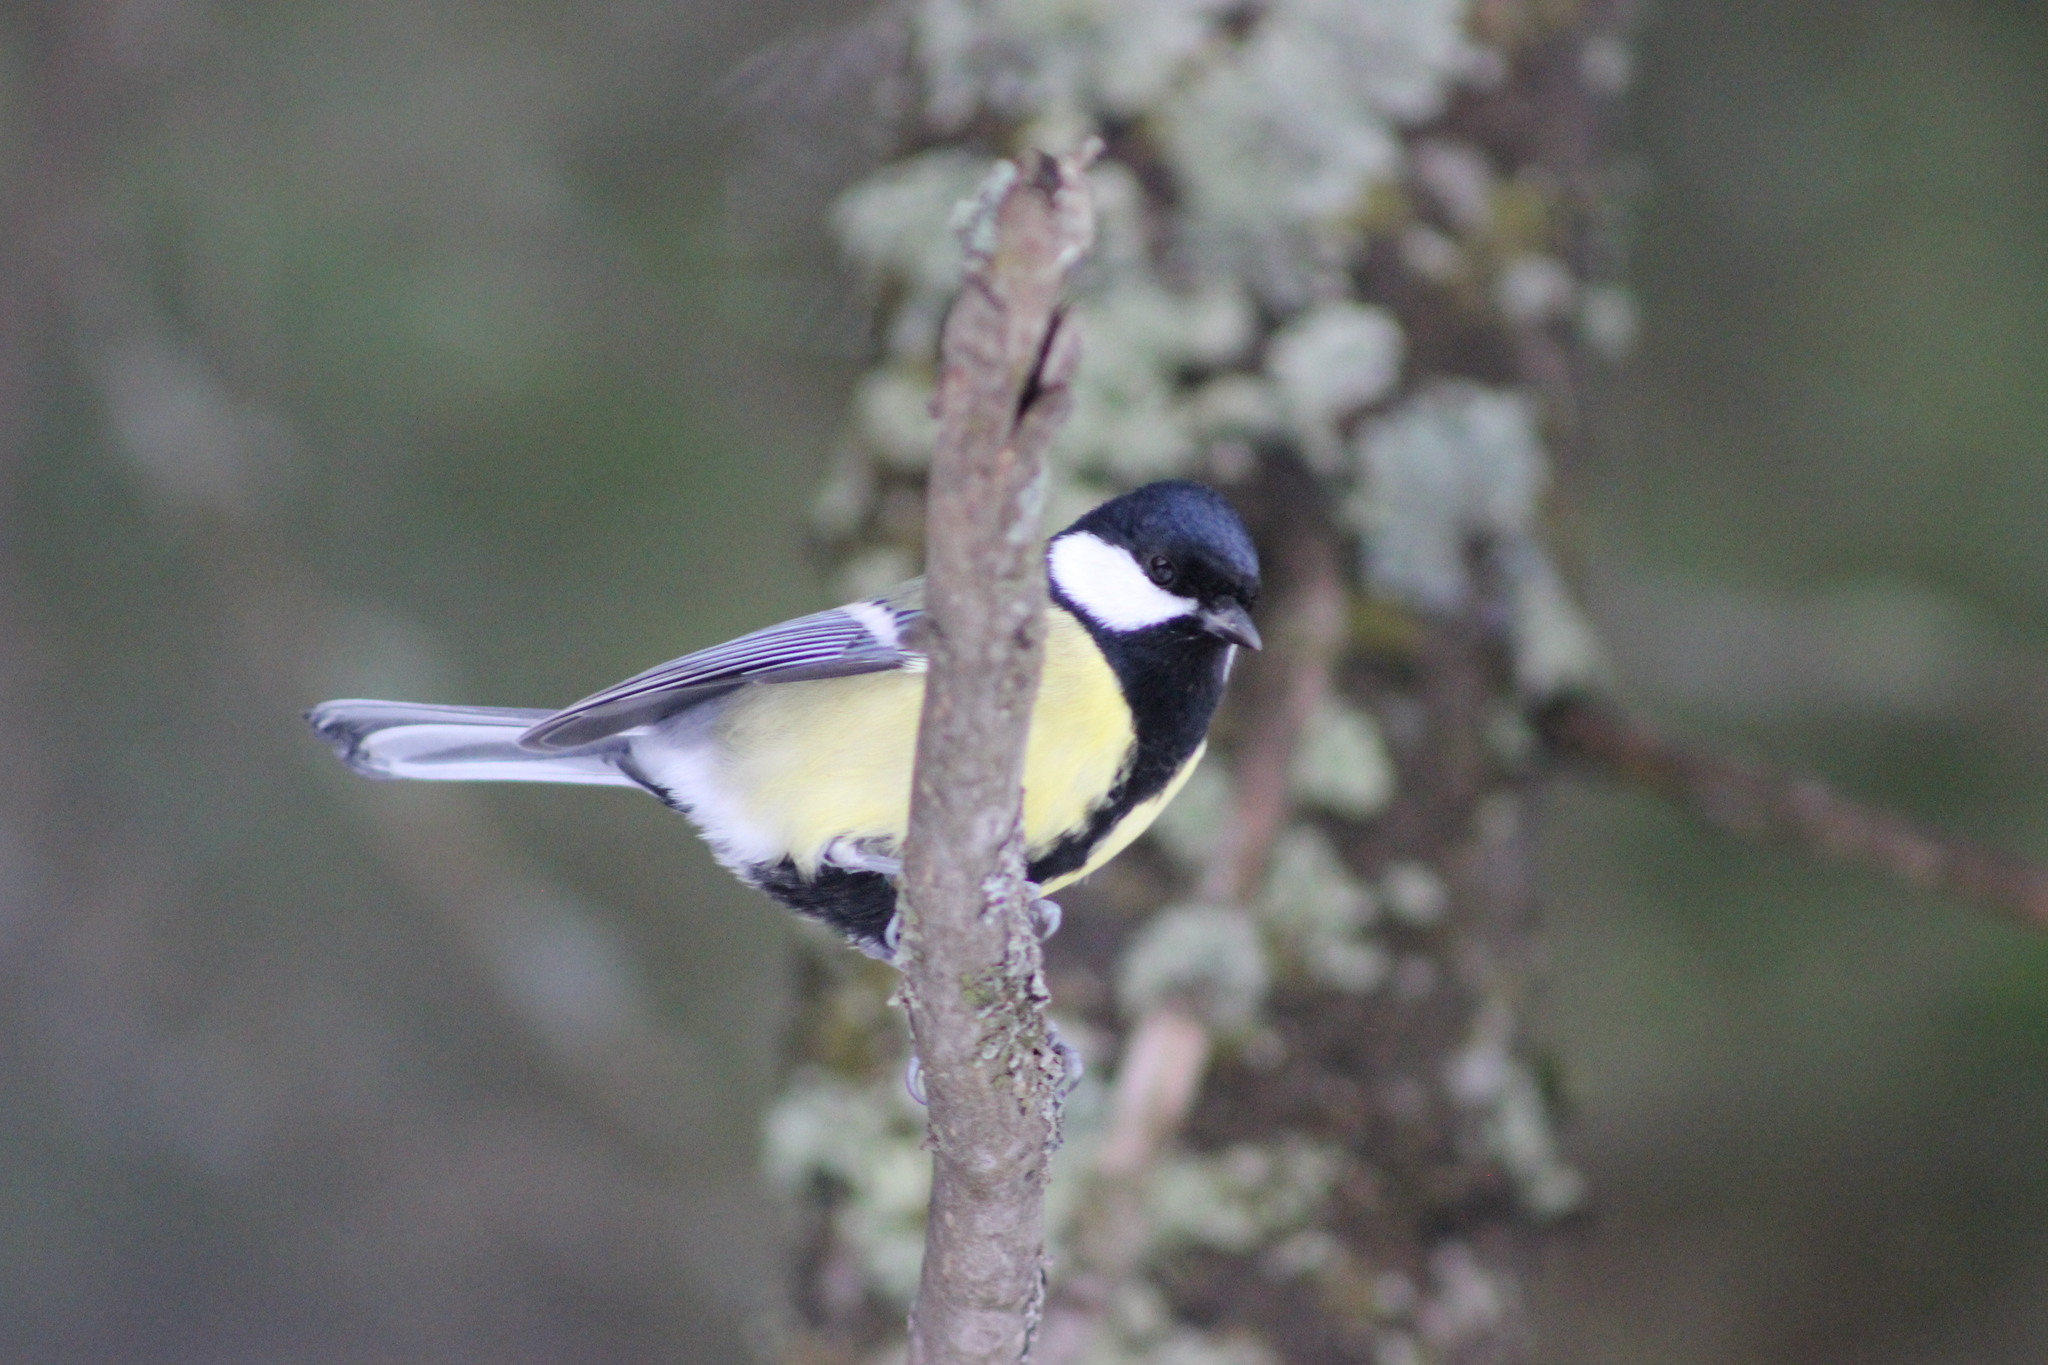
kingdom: Animalia
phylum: Chordata
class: Aves
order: Passeriformes
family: Paridae
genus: Parus
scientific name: Parus major
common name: Great tit
